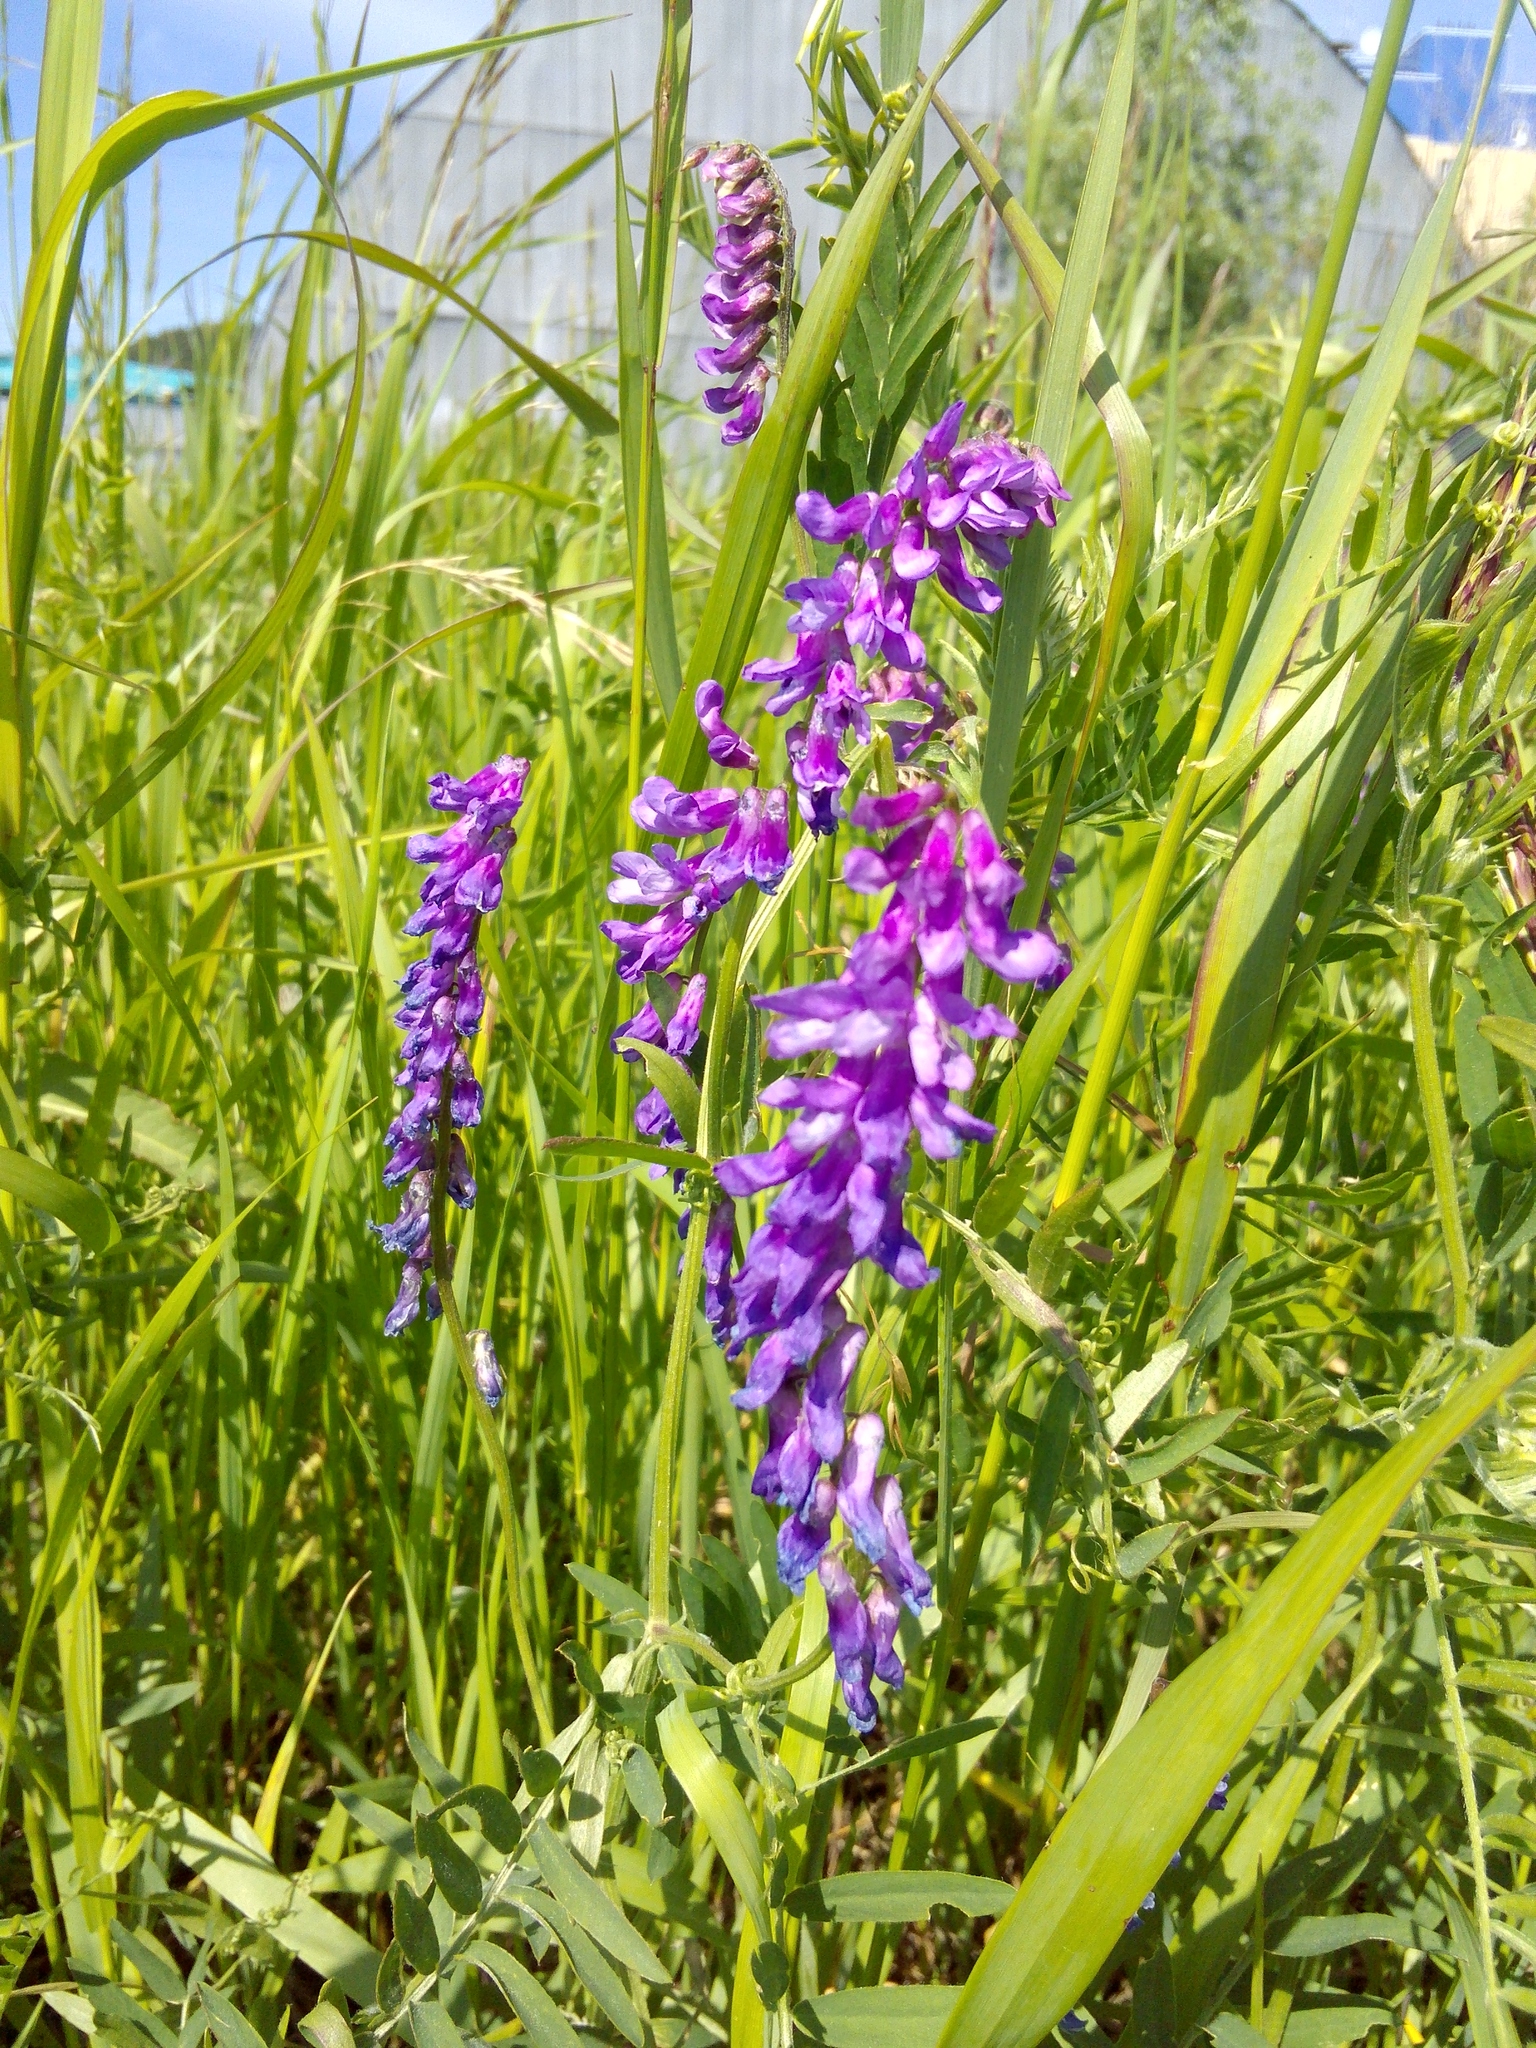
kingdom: Plantae
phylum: Tracheophyta
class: Magnoliopsida
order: Fabales
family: Fabaceae
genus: Vicia
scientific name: Vicia cracca
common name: Bird vetch
